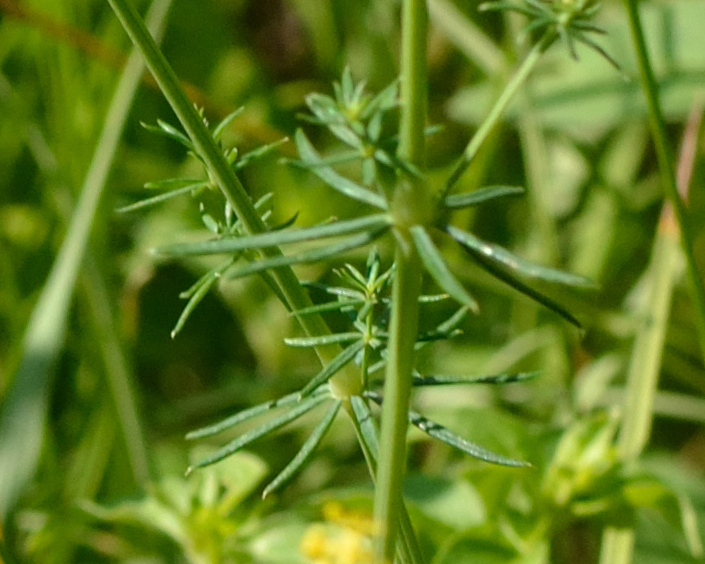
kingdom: Plantae
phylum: Tracheophyta
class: Magnoliopsida
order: Gentianales
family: Rubiaceae
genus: Galium
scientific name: Galium verum
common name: Lady's bedstraw
